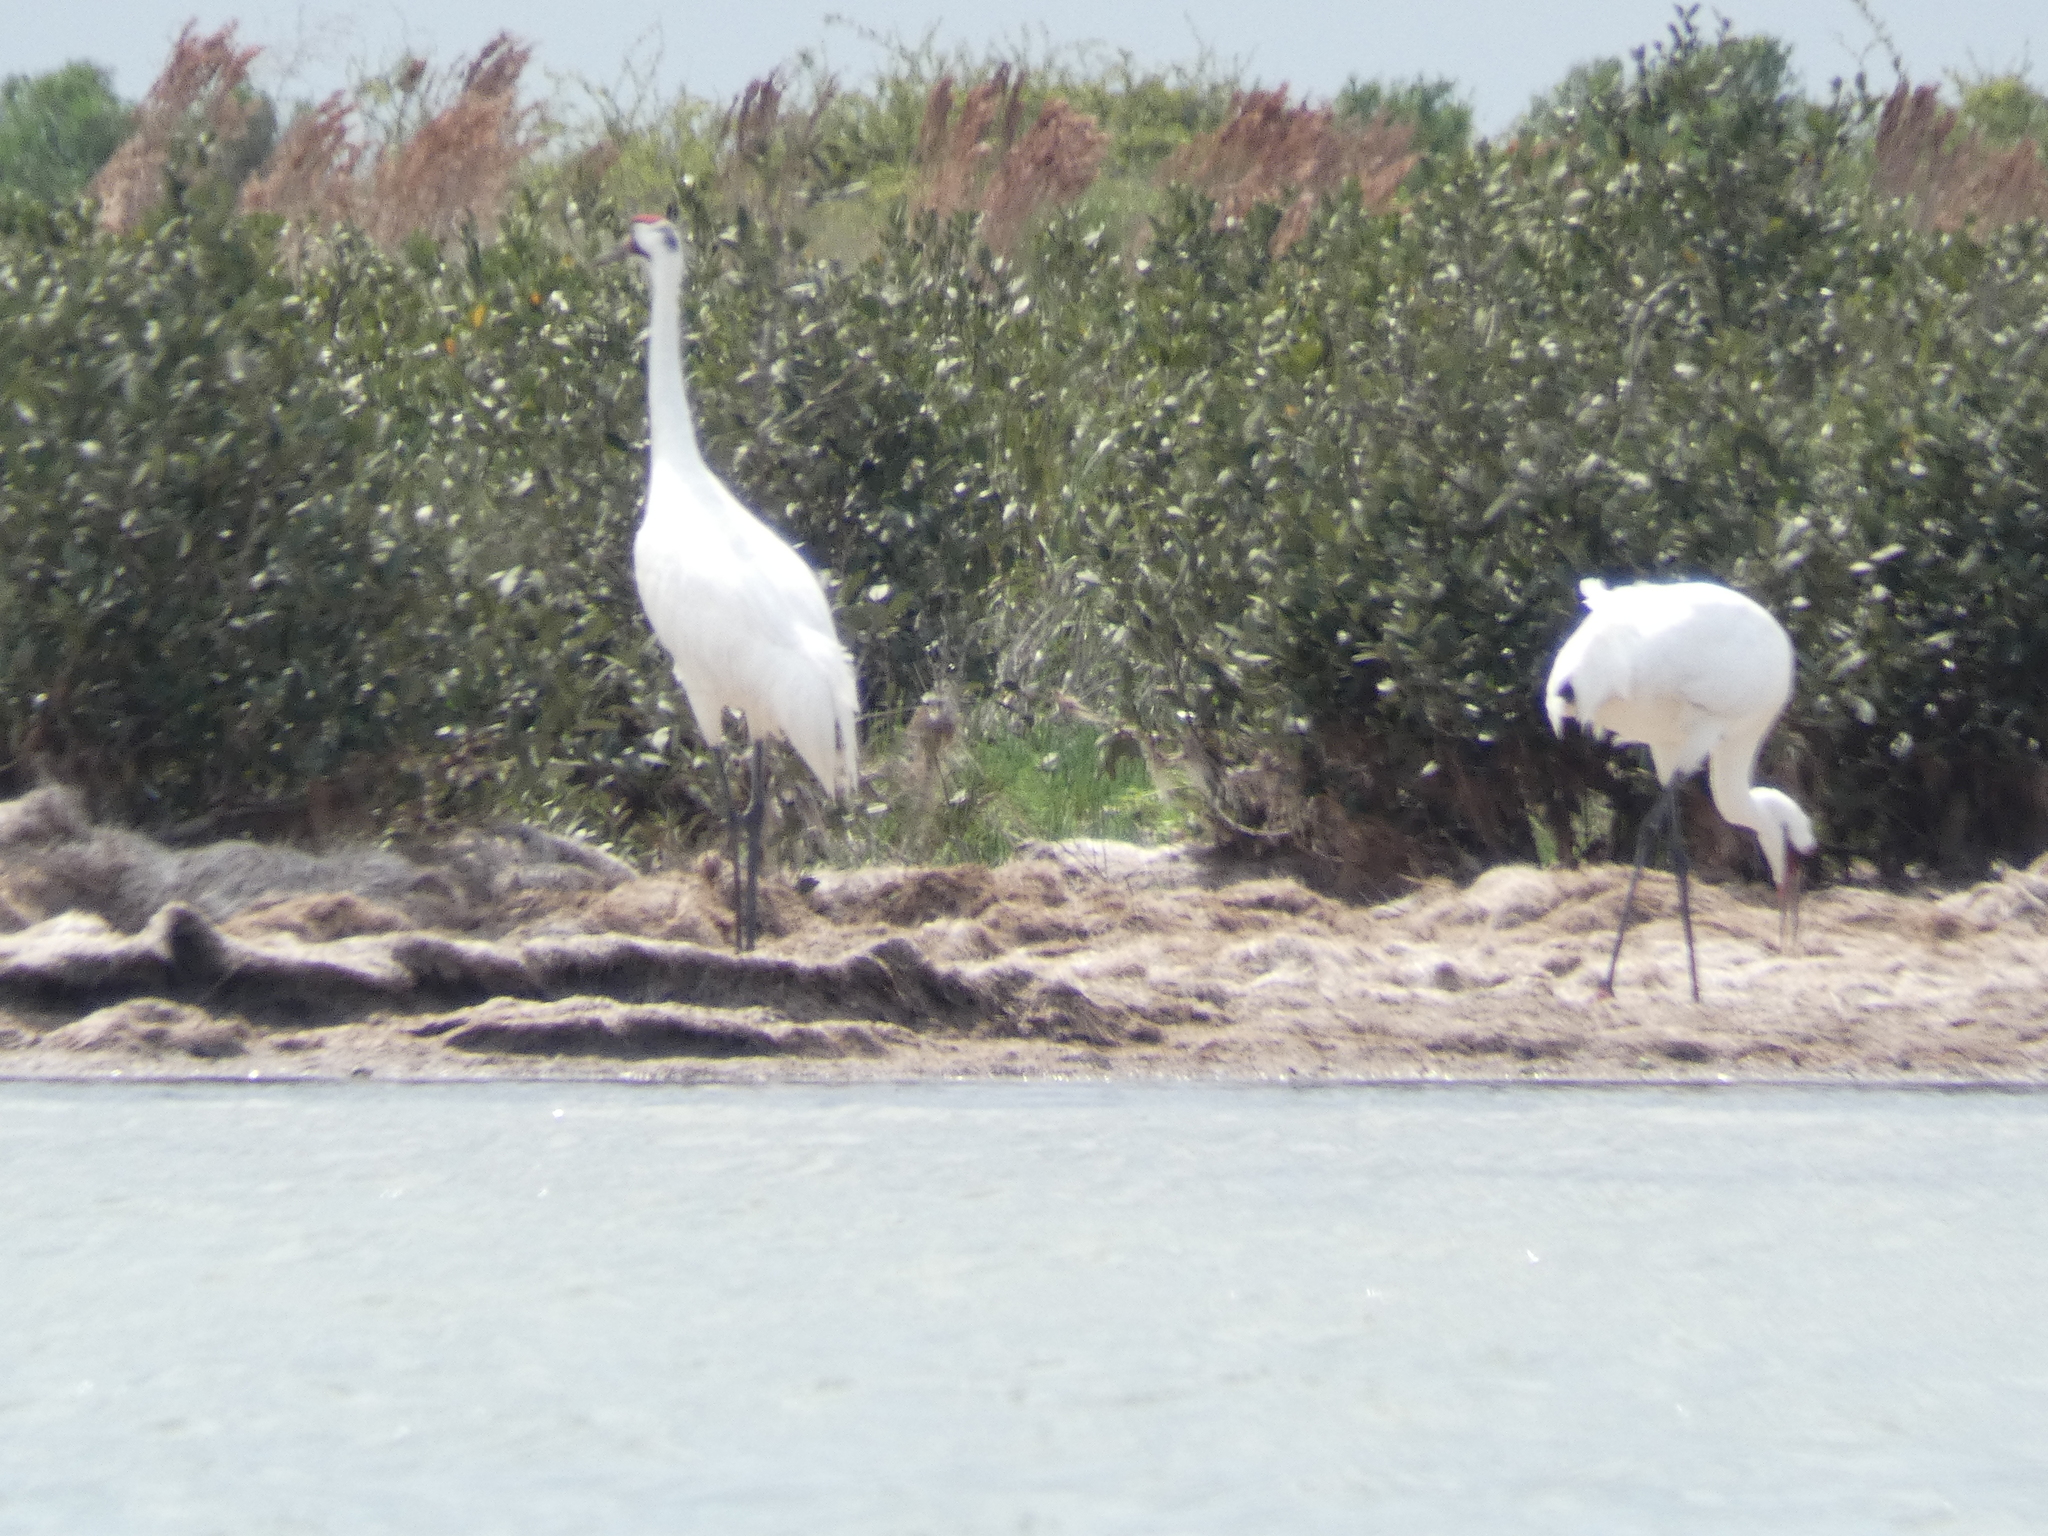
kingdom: Animalia
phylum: Chordata
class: Aves
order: Gruiformes
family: Gruidae
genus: Grus
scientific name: Grus americana
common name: Whooping crane
